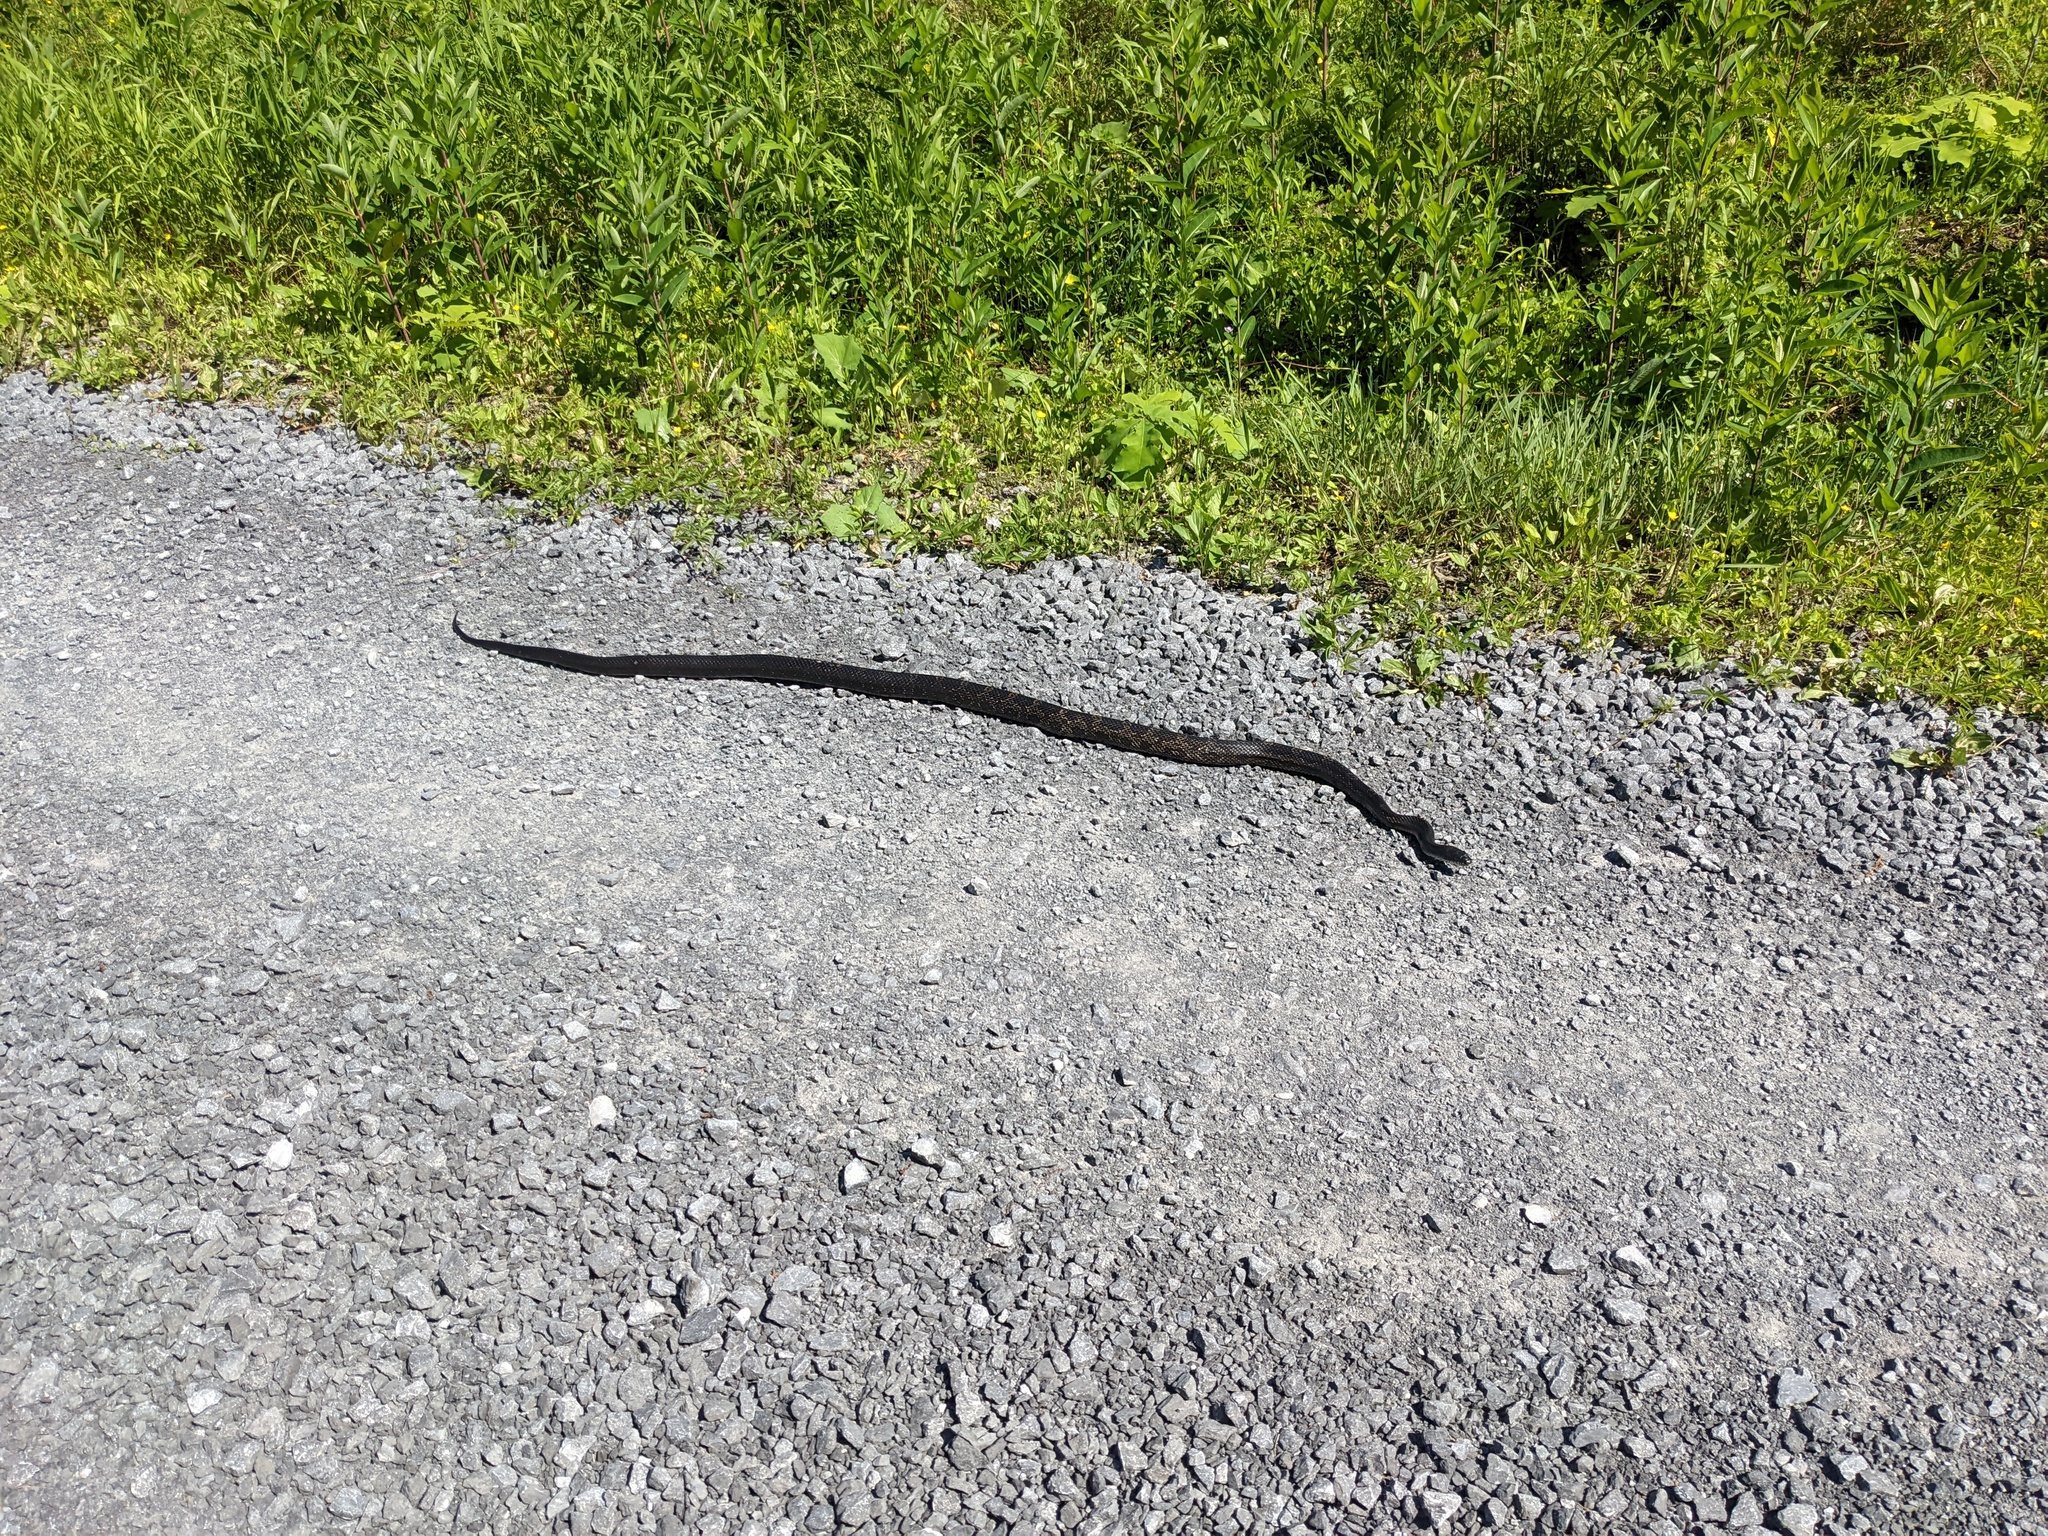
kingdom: Animalia
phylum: Chordata
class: Squamata
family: Colubridae
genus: Pantherophis
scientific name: Pantherophis spiloides
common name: Gray rat snake
